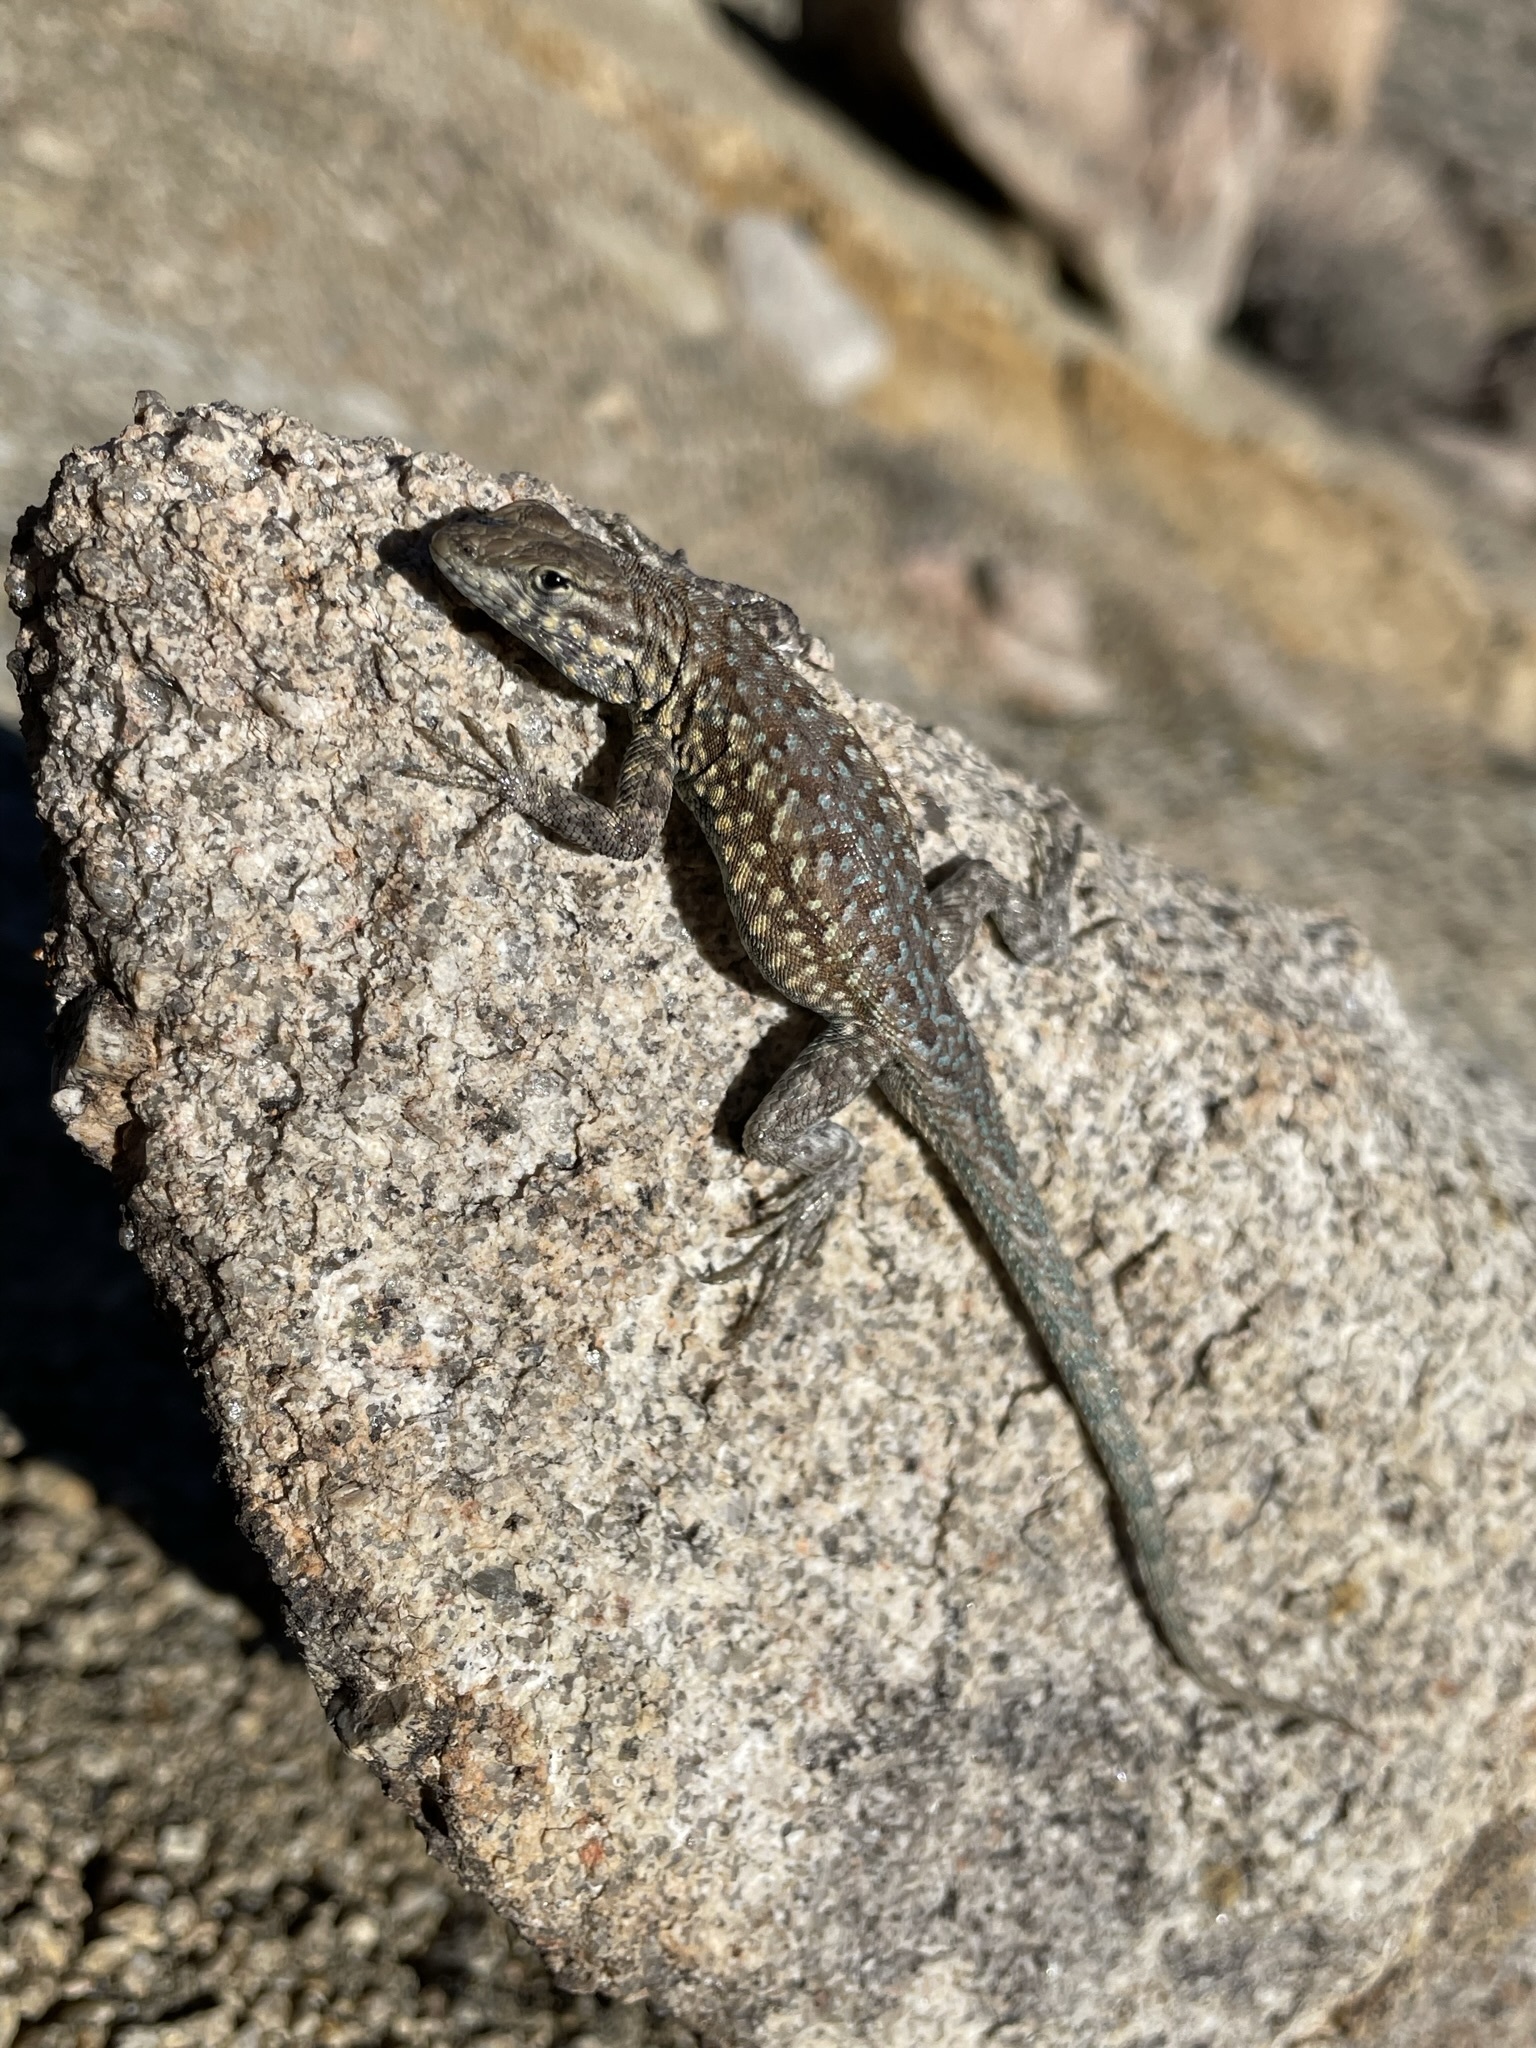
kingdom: Animalia
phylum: Chordata
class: Squamata
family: Phrynosomatidae
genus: Uta
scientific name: Uta stansburiana
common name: Side-blotched lizard
